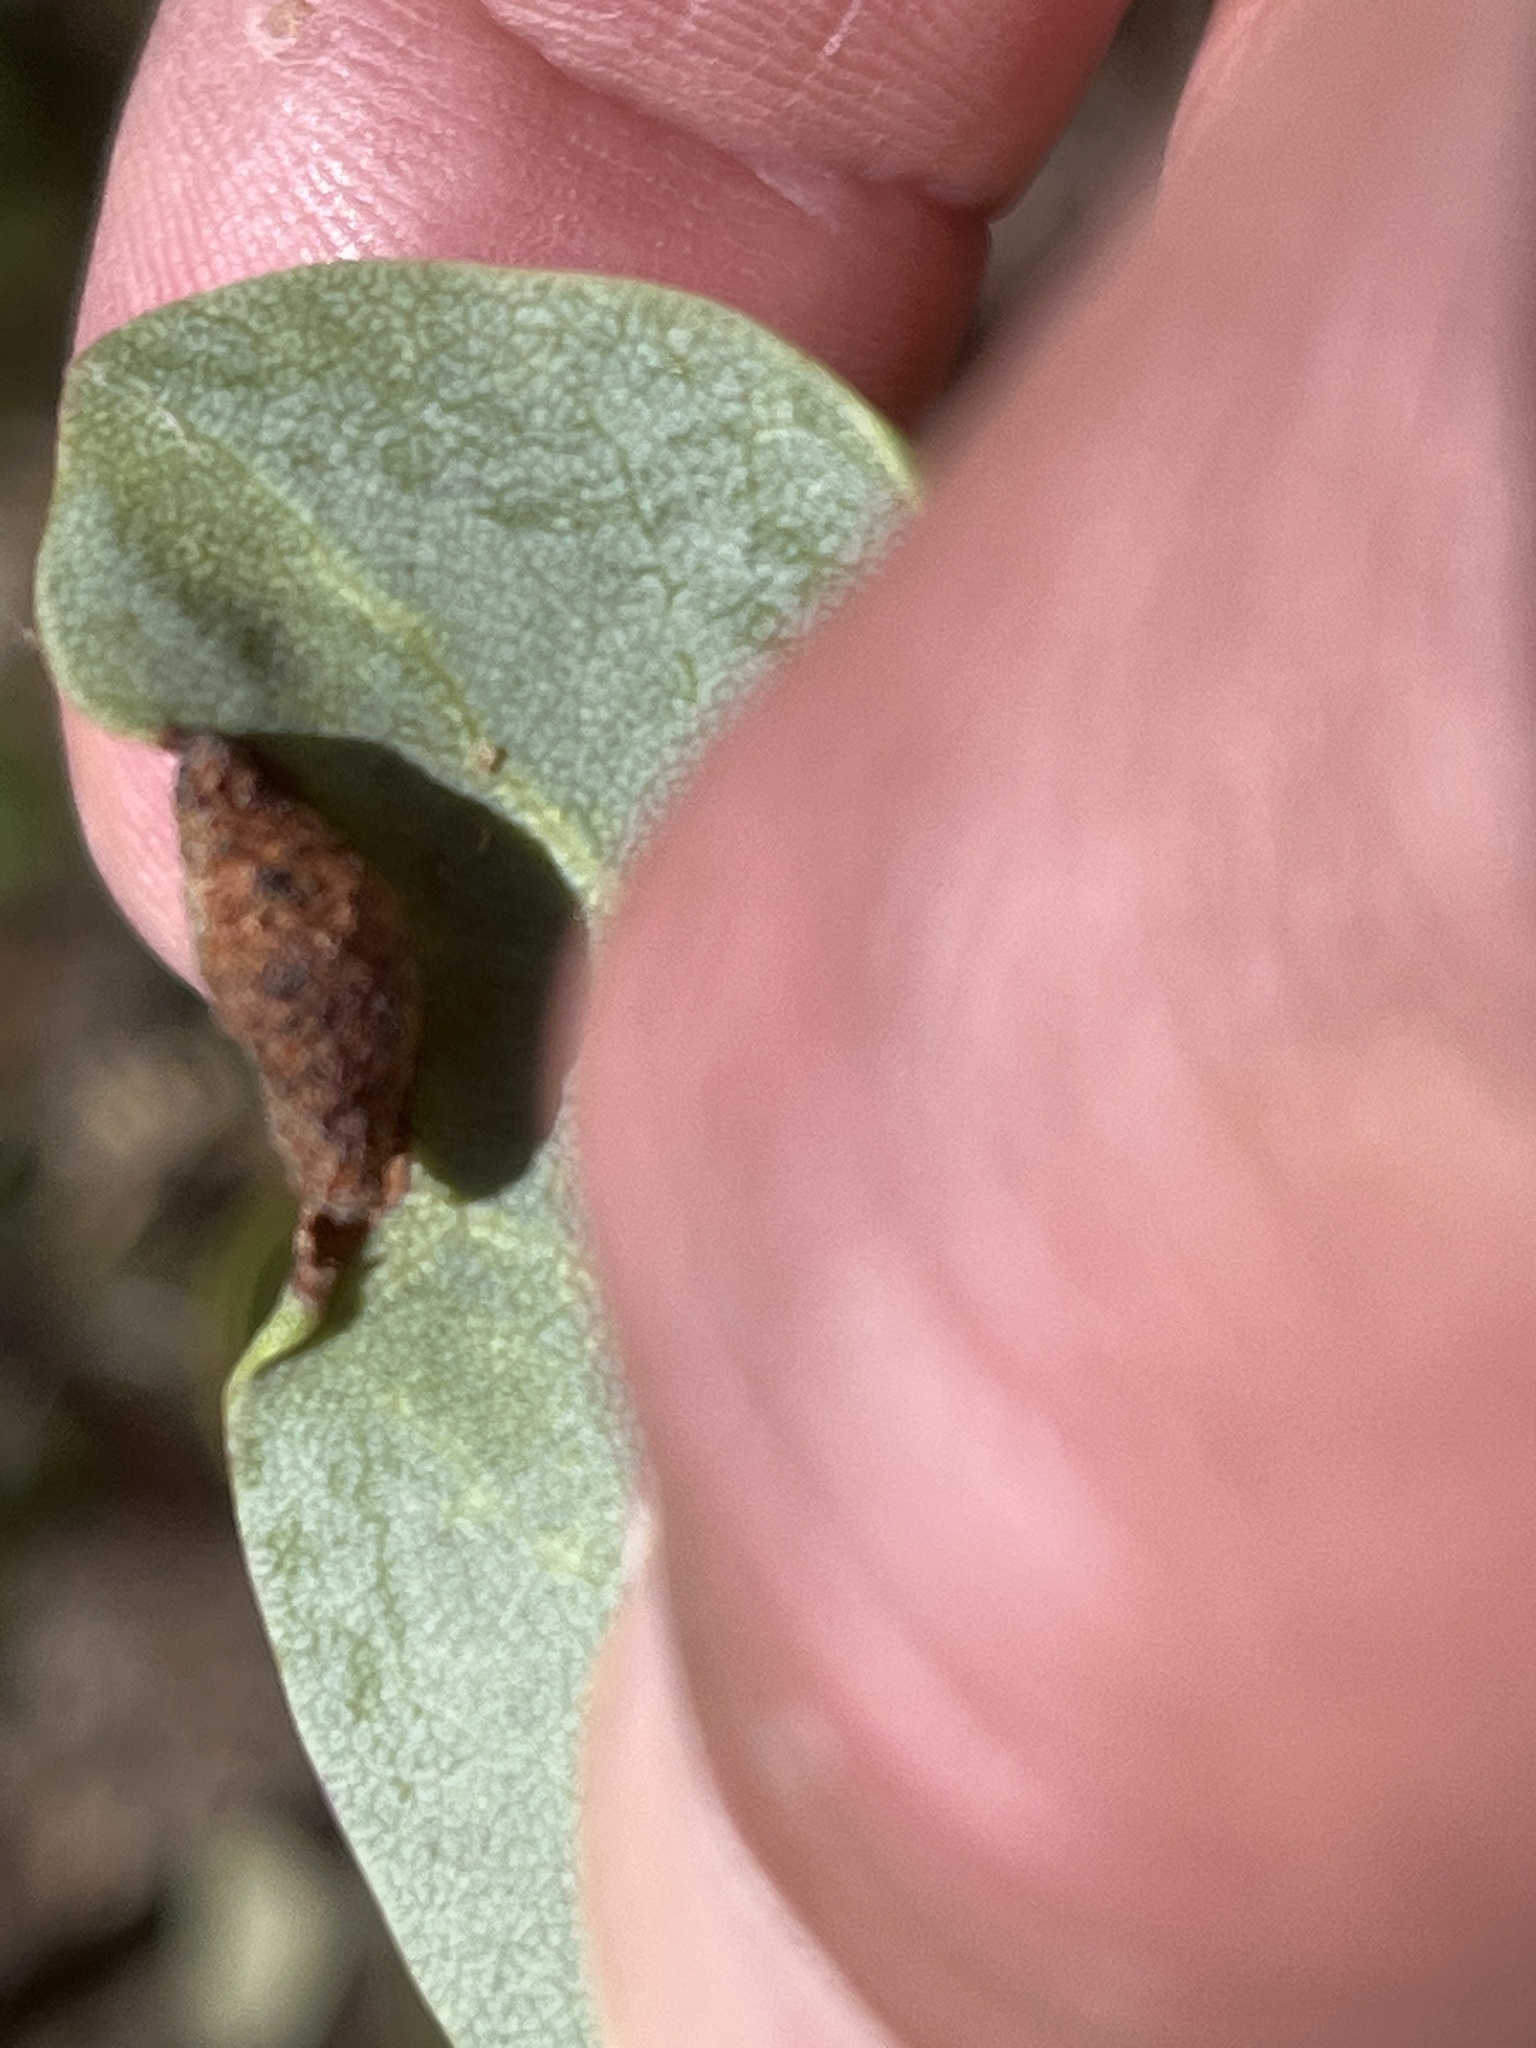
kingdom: Animalia
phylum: Arthropoda
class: Insecta
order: Hemiptera
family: Aphididae
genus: Tamalia
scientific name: Tamalia coweni
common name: Manzanita leafgall aphid
